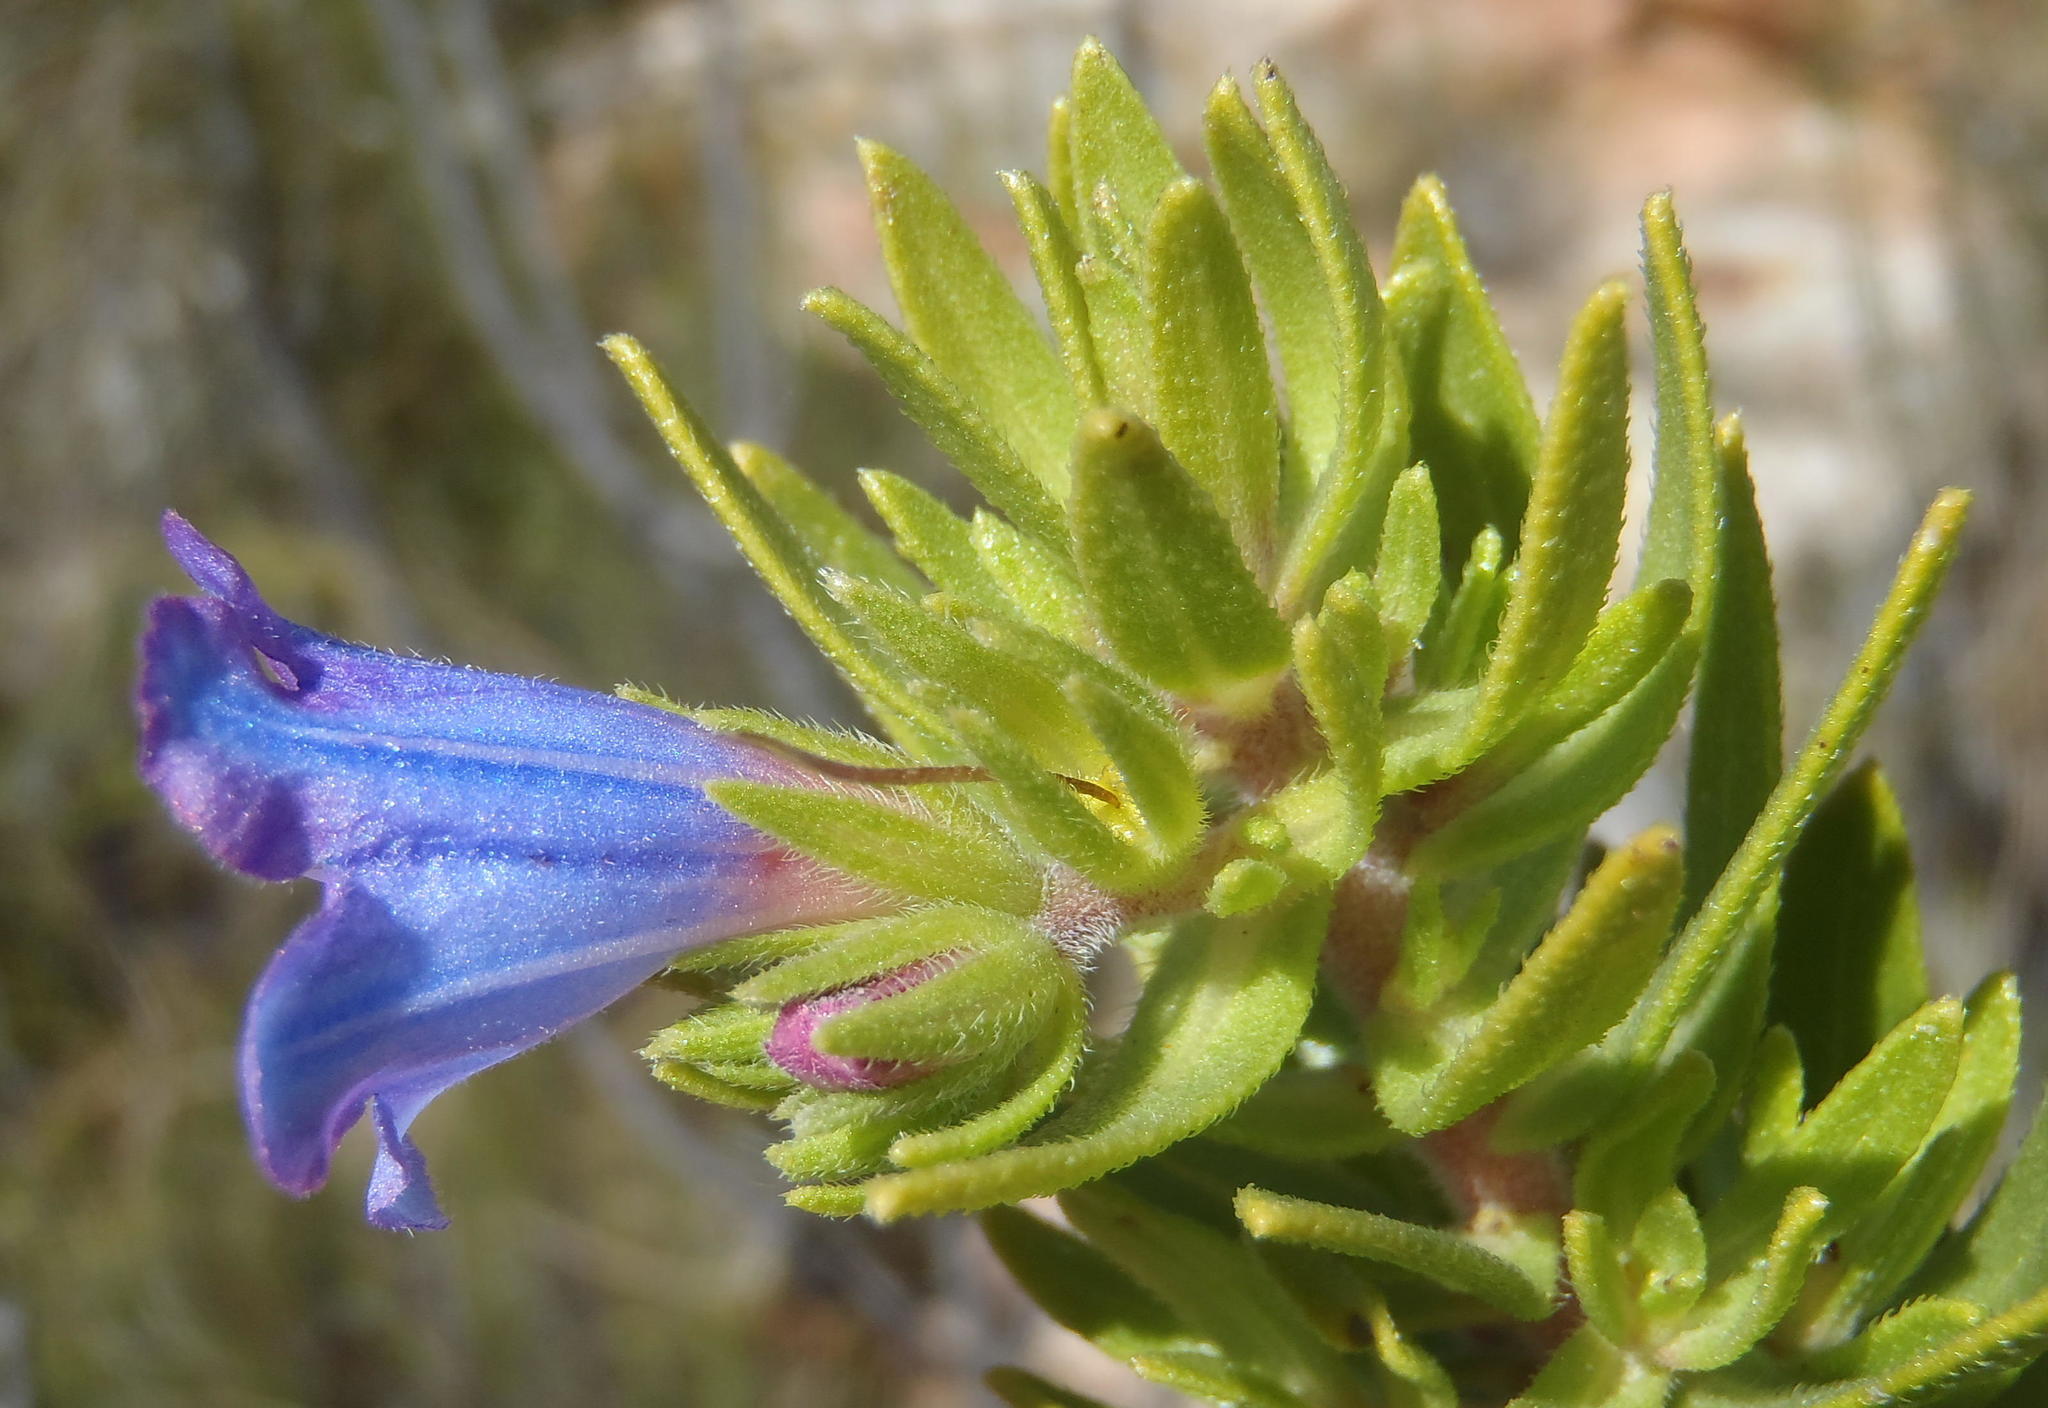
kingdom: Plantae
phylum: Tracheophyta
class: Magnoliopsida
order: Boraginales
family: Boraginaceae
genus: Lobostemon
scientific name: Lobostemon fruticosus
